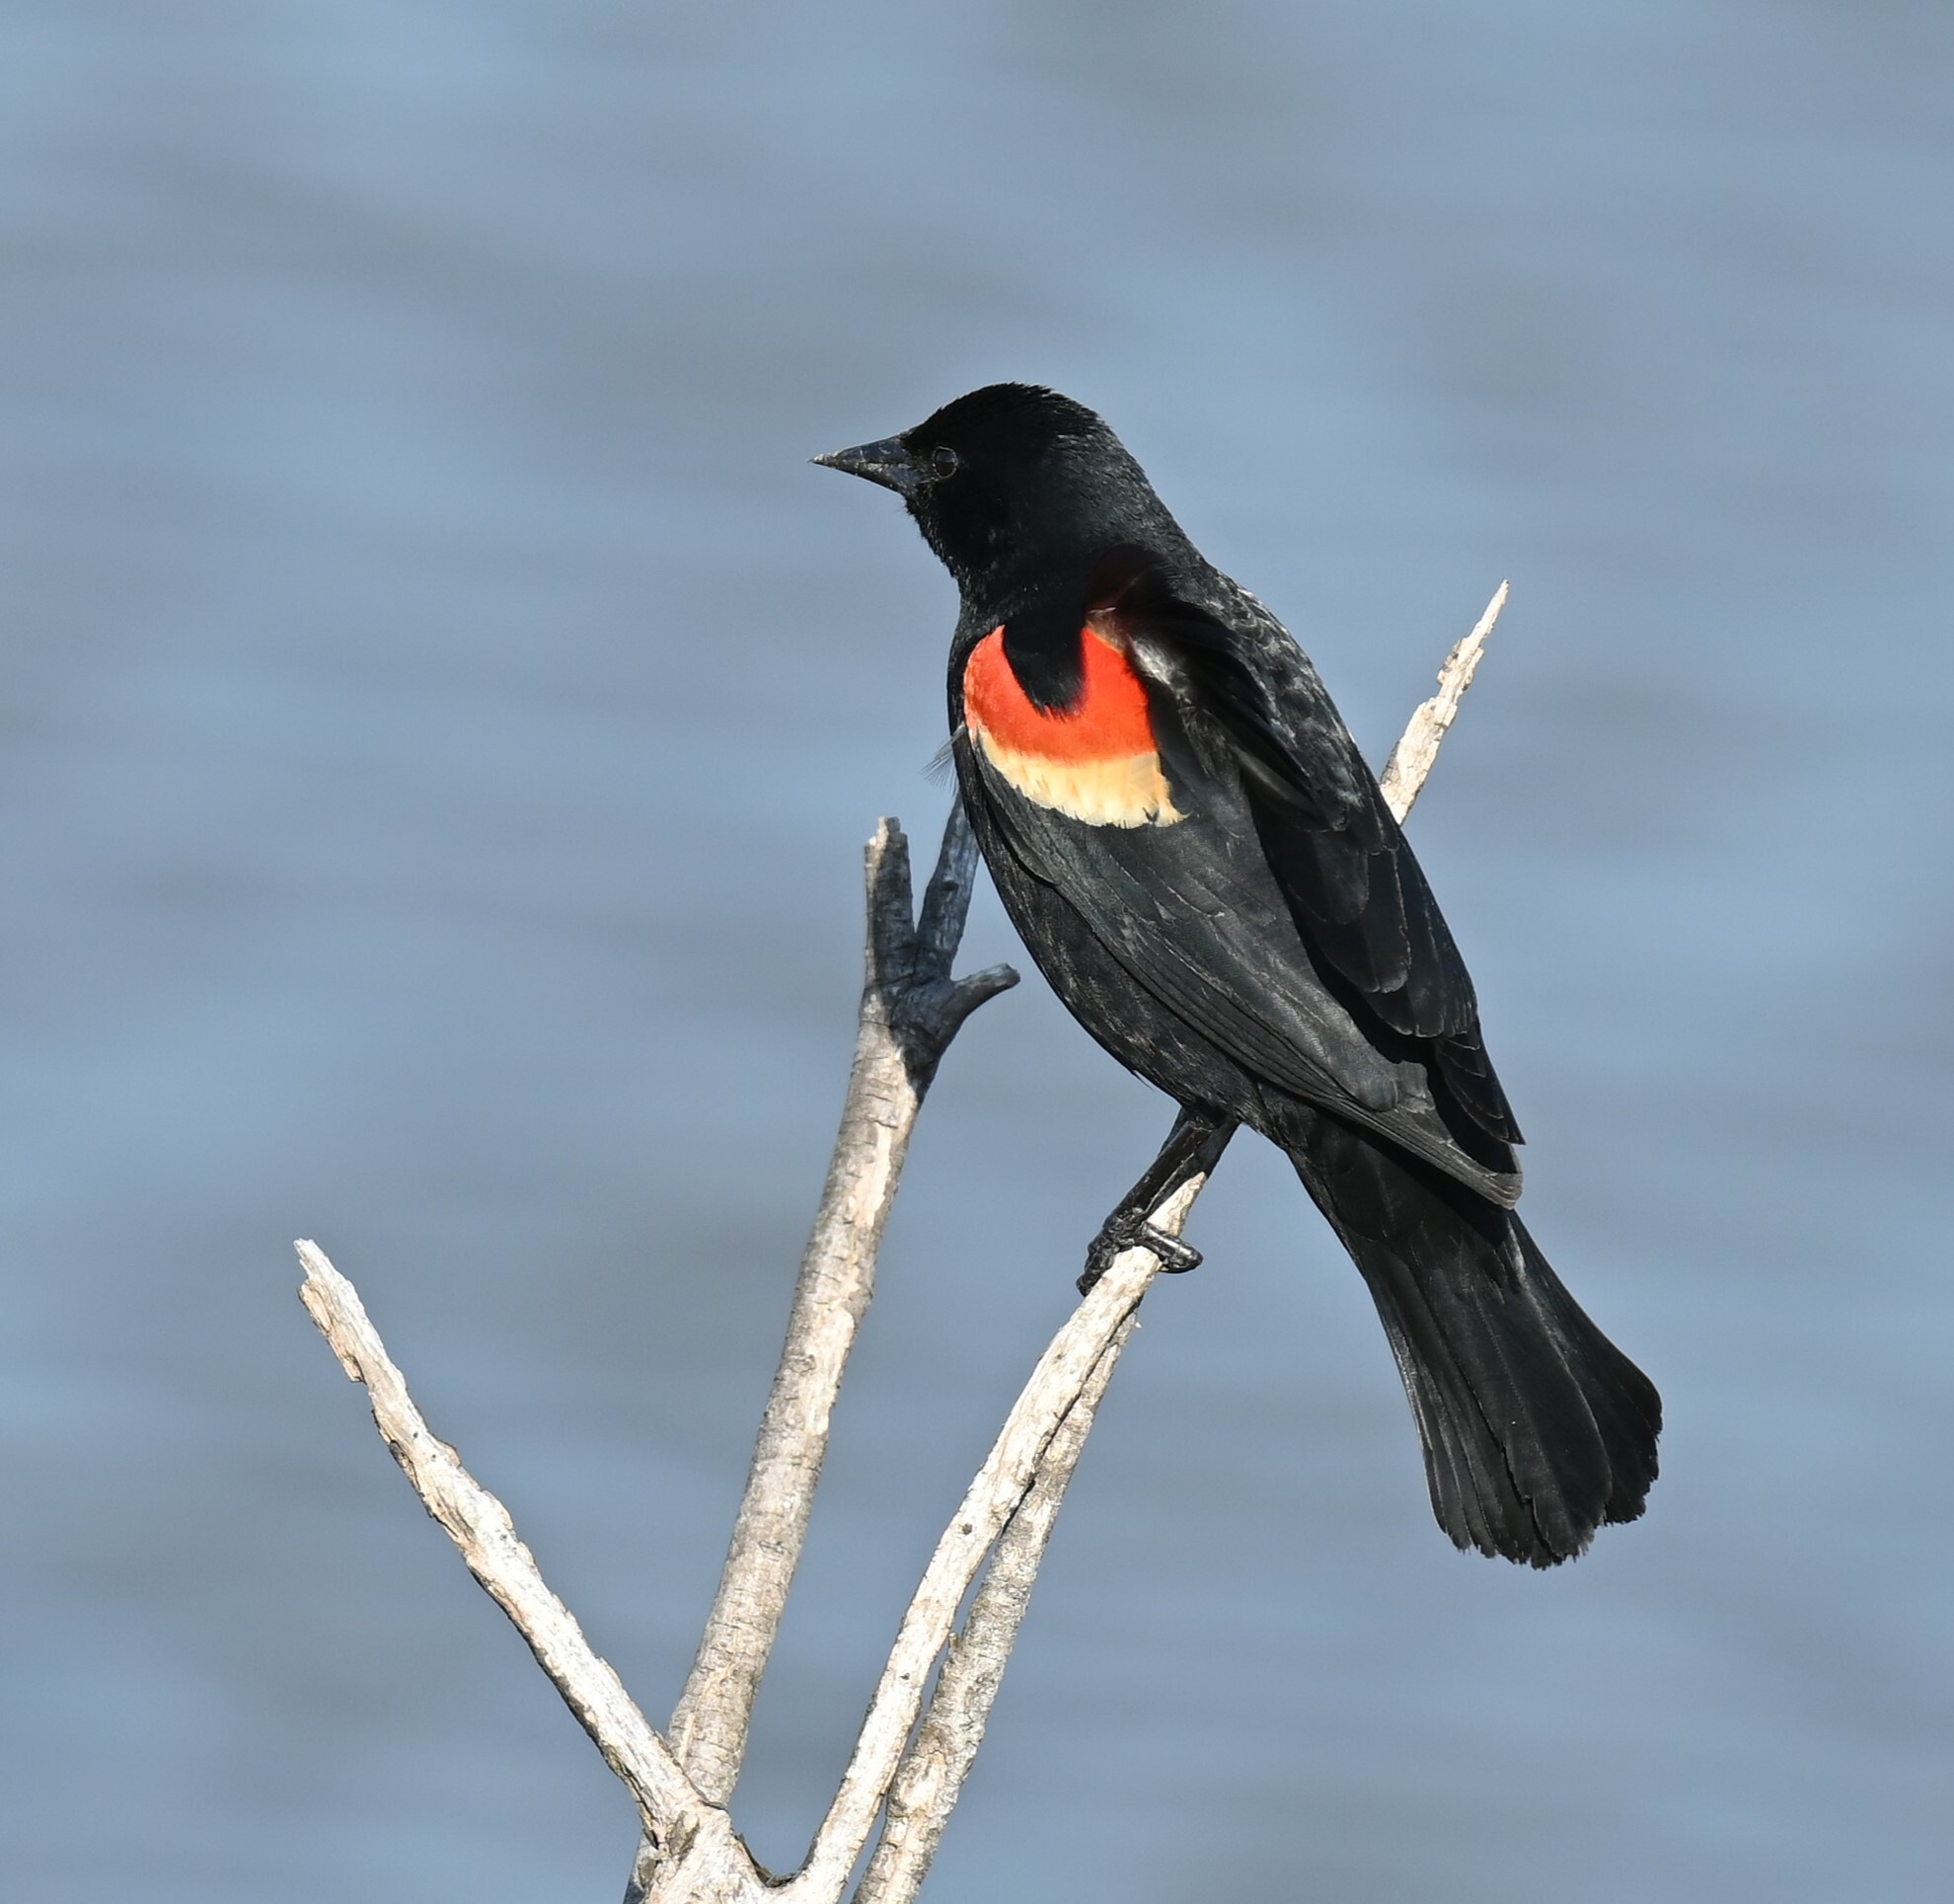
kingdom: Animalia
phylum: Chordata
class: Aves
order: Passeriformes
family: Icteridae
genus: Agelaius
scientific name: Agelaius phoeniceus
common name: Red-winged blackbird
